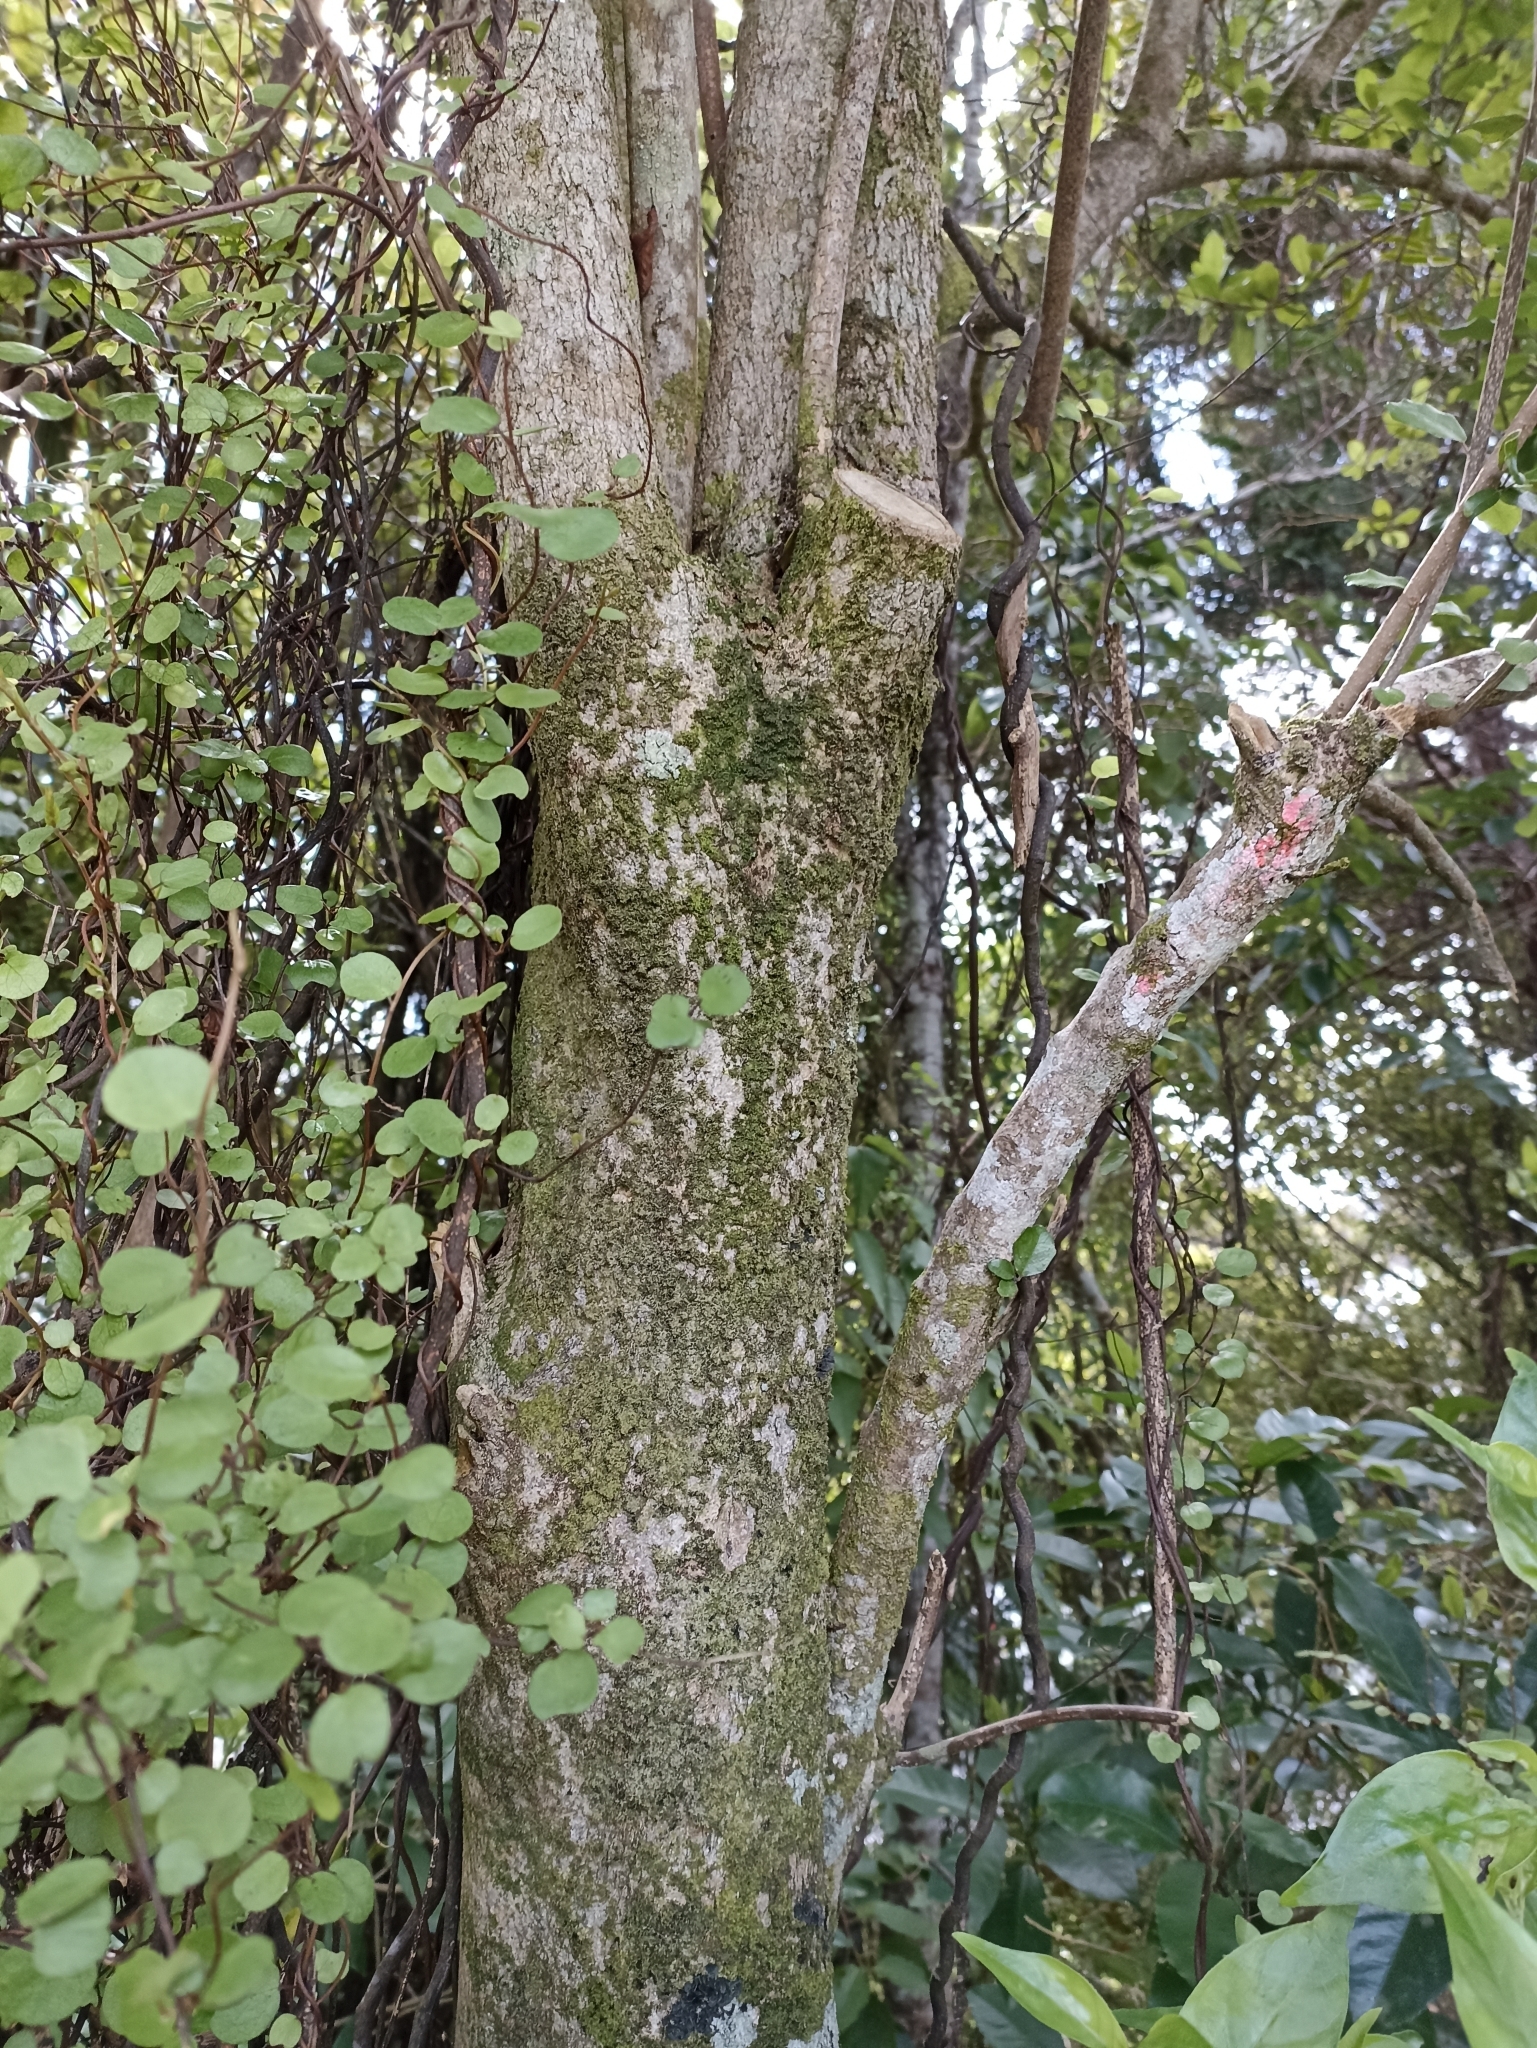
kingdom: Plantae
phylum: Tracheophyta
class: Magnoliopsida
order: Apiales
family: Pennantiaceae
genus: Pennantia
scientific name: Pennantia corymbosa
